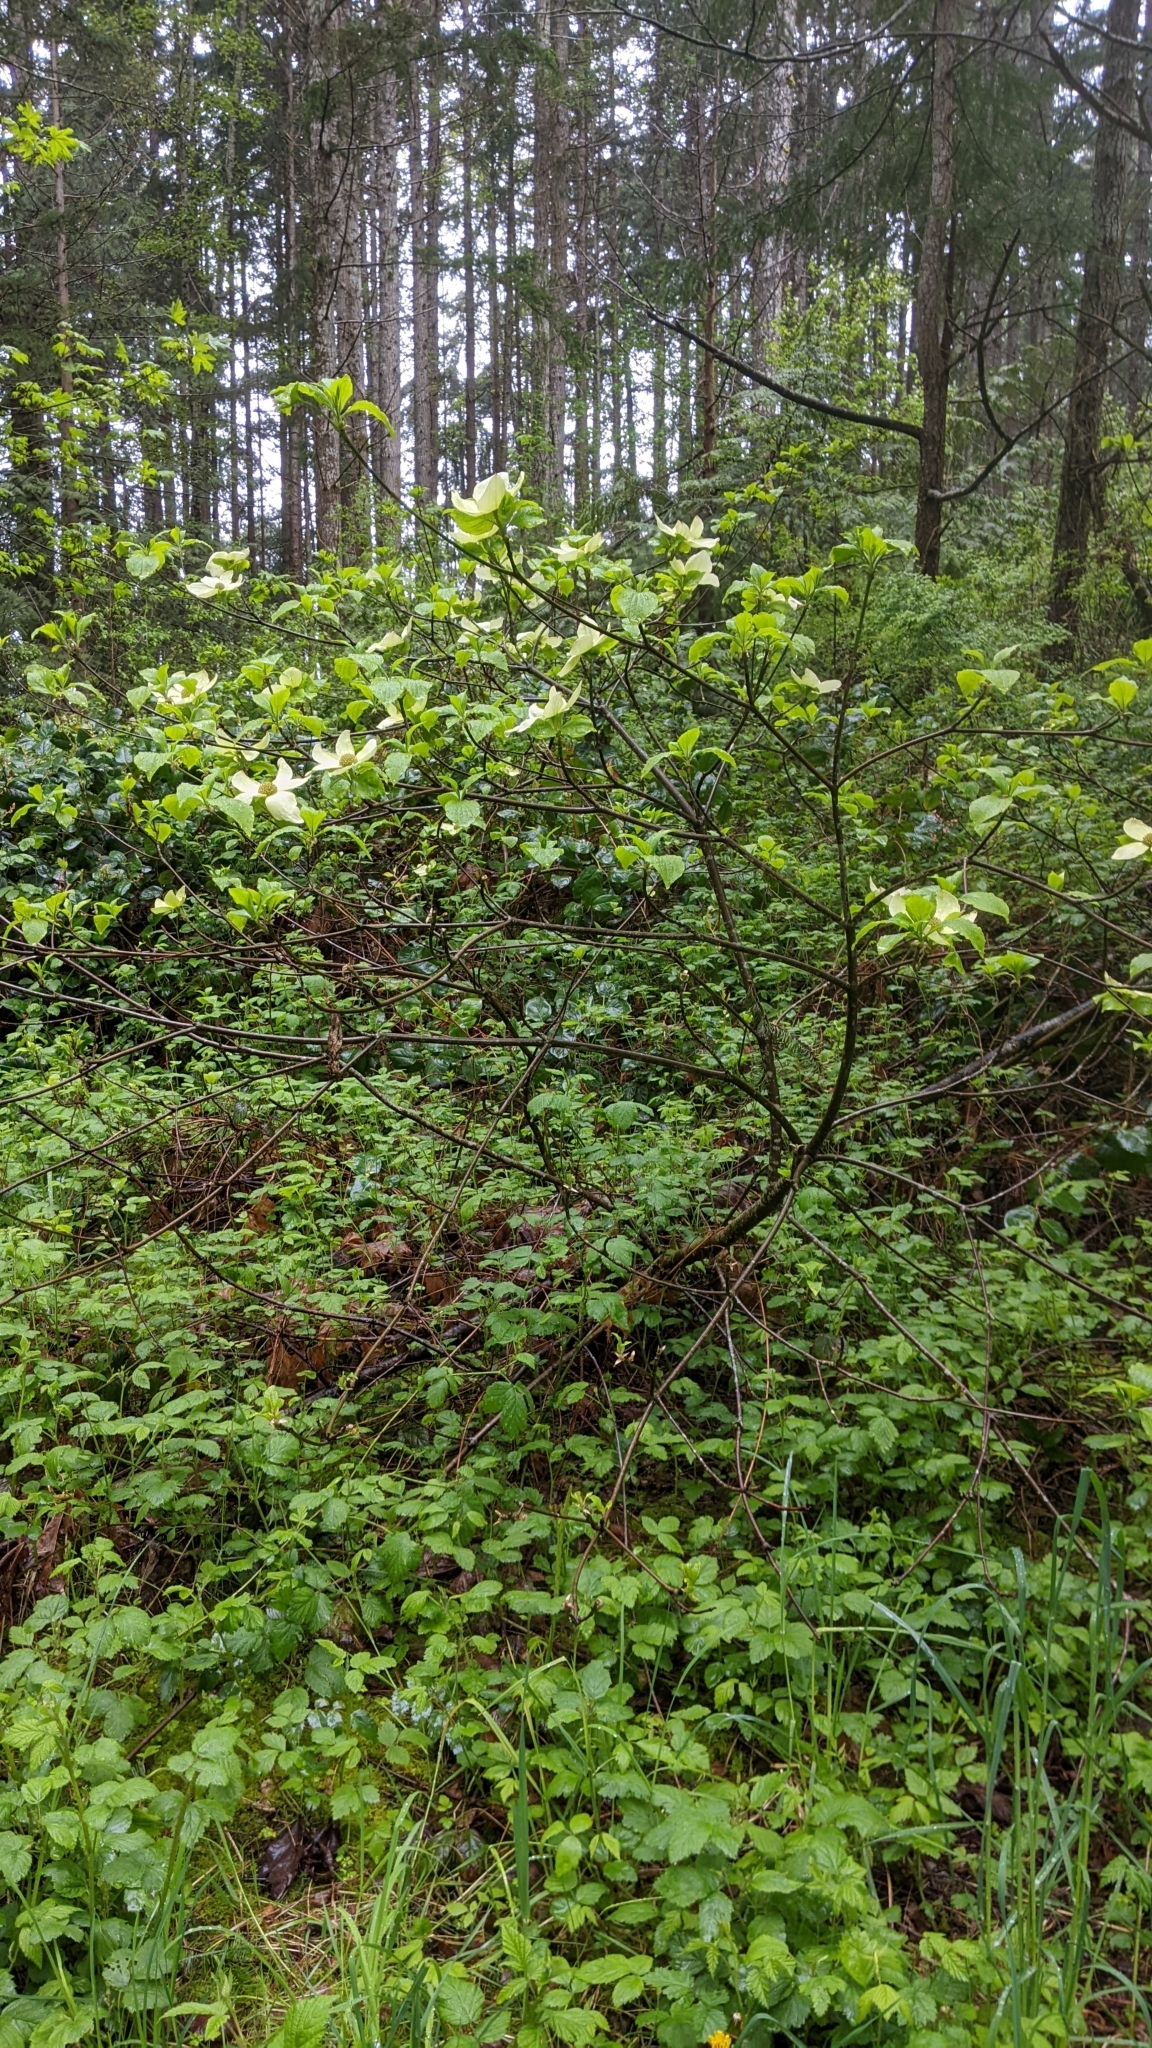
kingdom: Plantae
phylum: Tracheophyta
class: Magnoliopsida
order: Cornales
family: Cornaceae
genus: Cornus
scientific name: Cornus nuttallii
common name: Pacific dogwood
